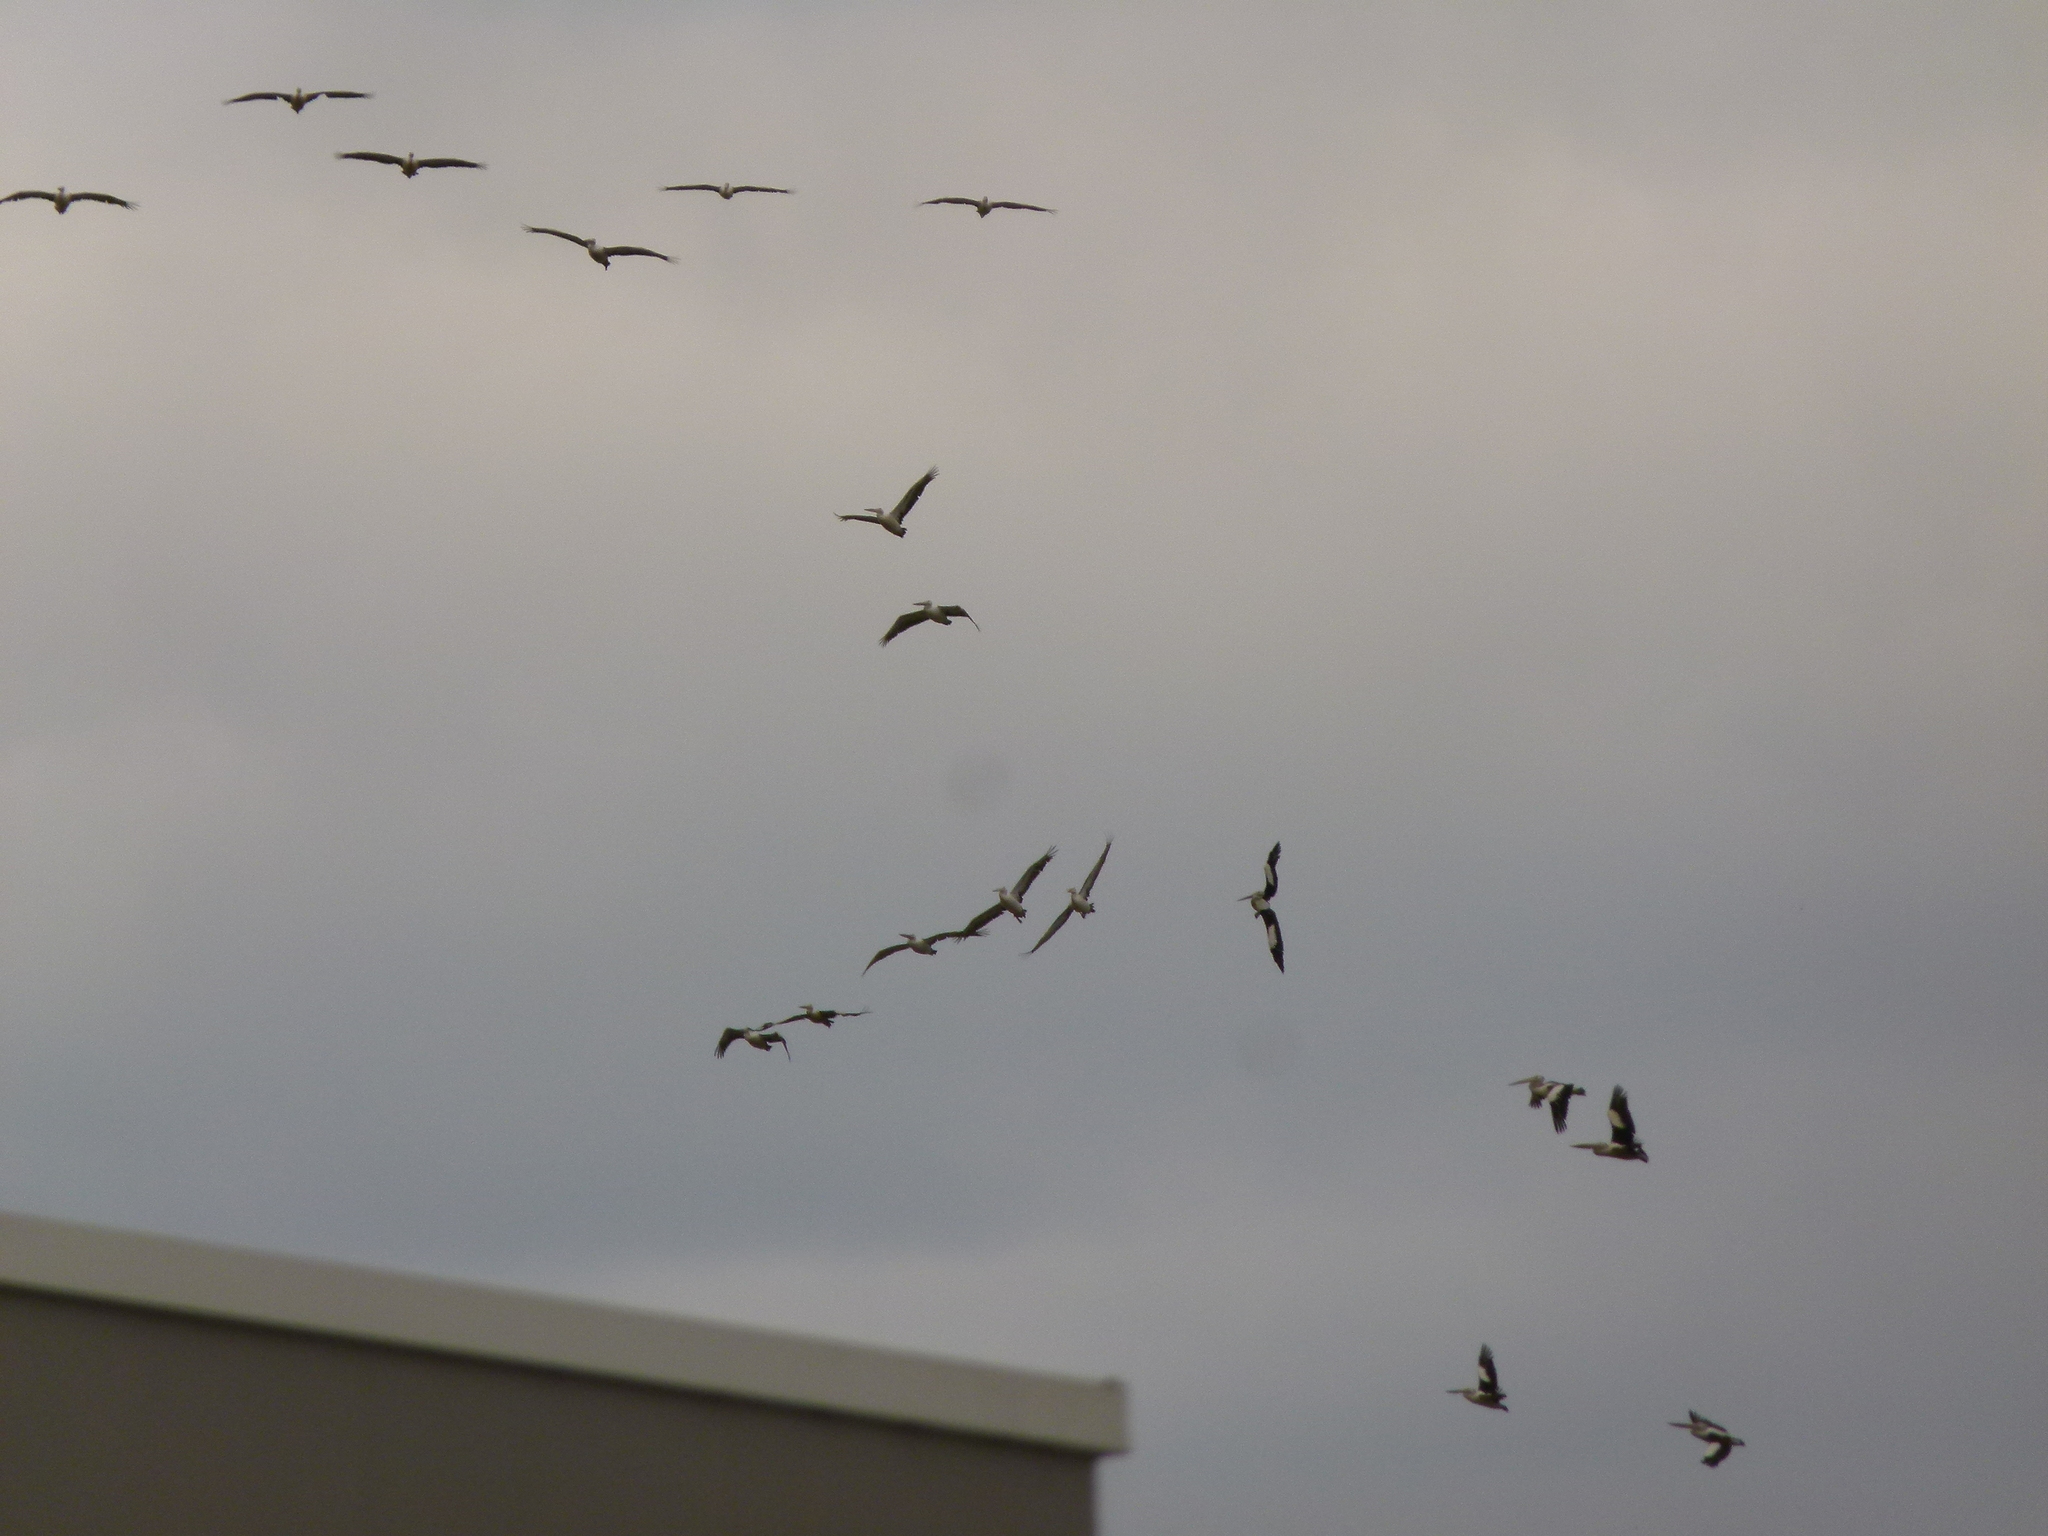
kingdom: Animalia
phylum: Chordata
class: Aves
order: Pelecaniformes
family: Pelecanidae
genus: Pelecanus
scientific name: Pelecanus conspicillatus
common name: Australian pelican
